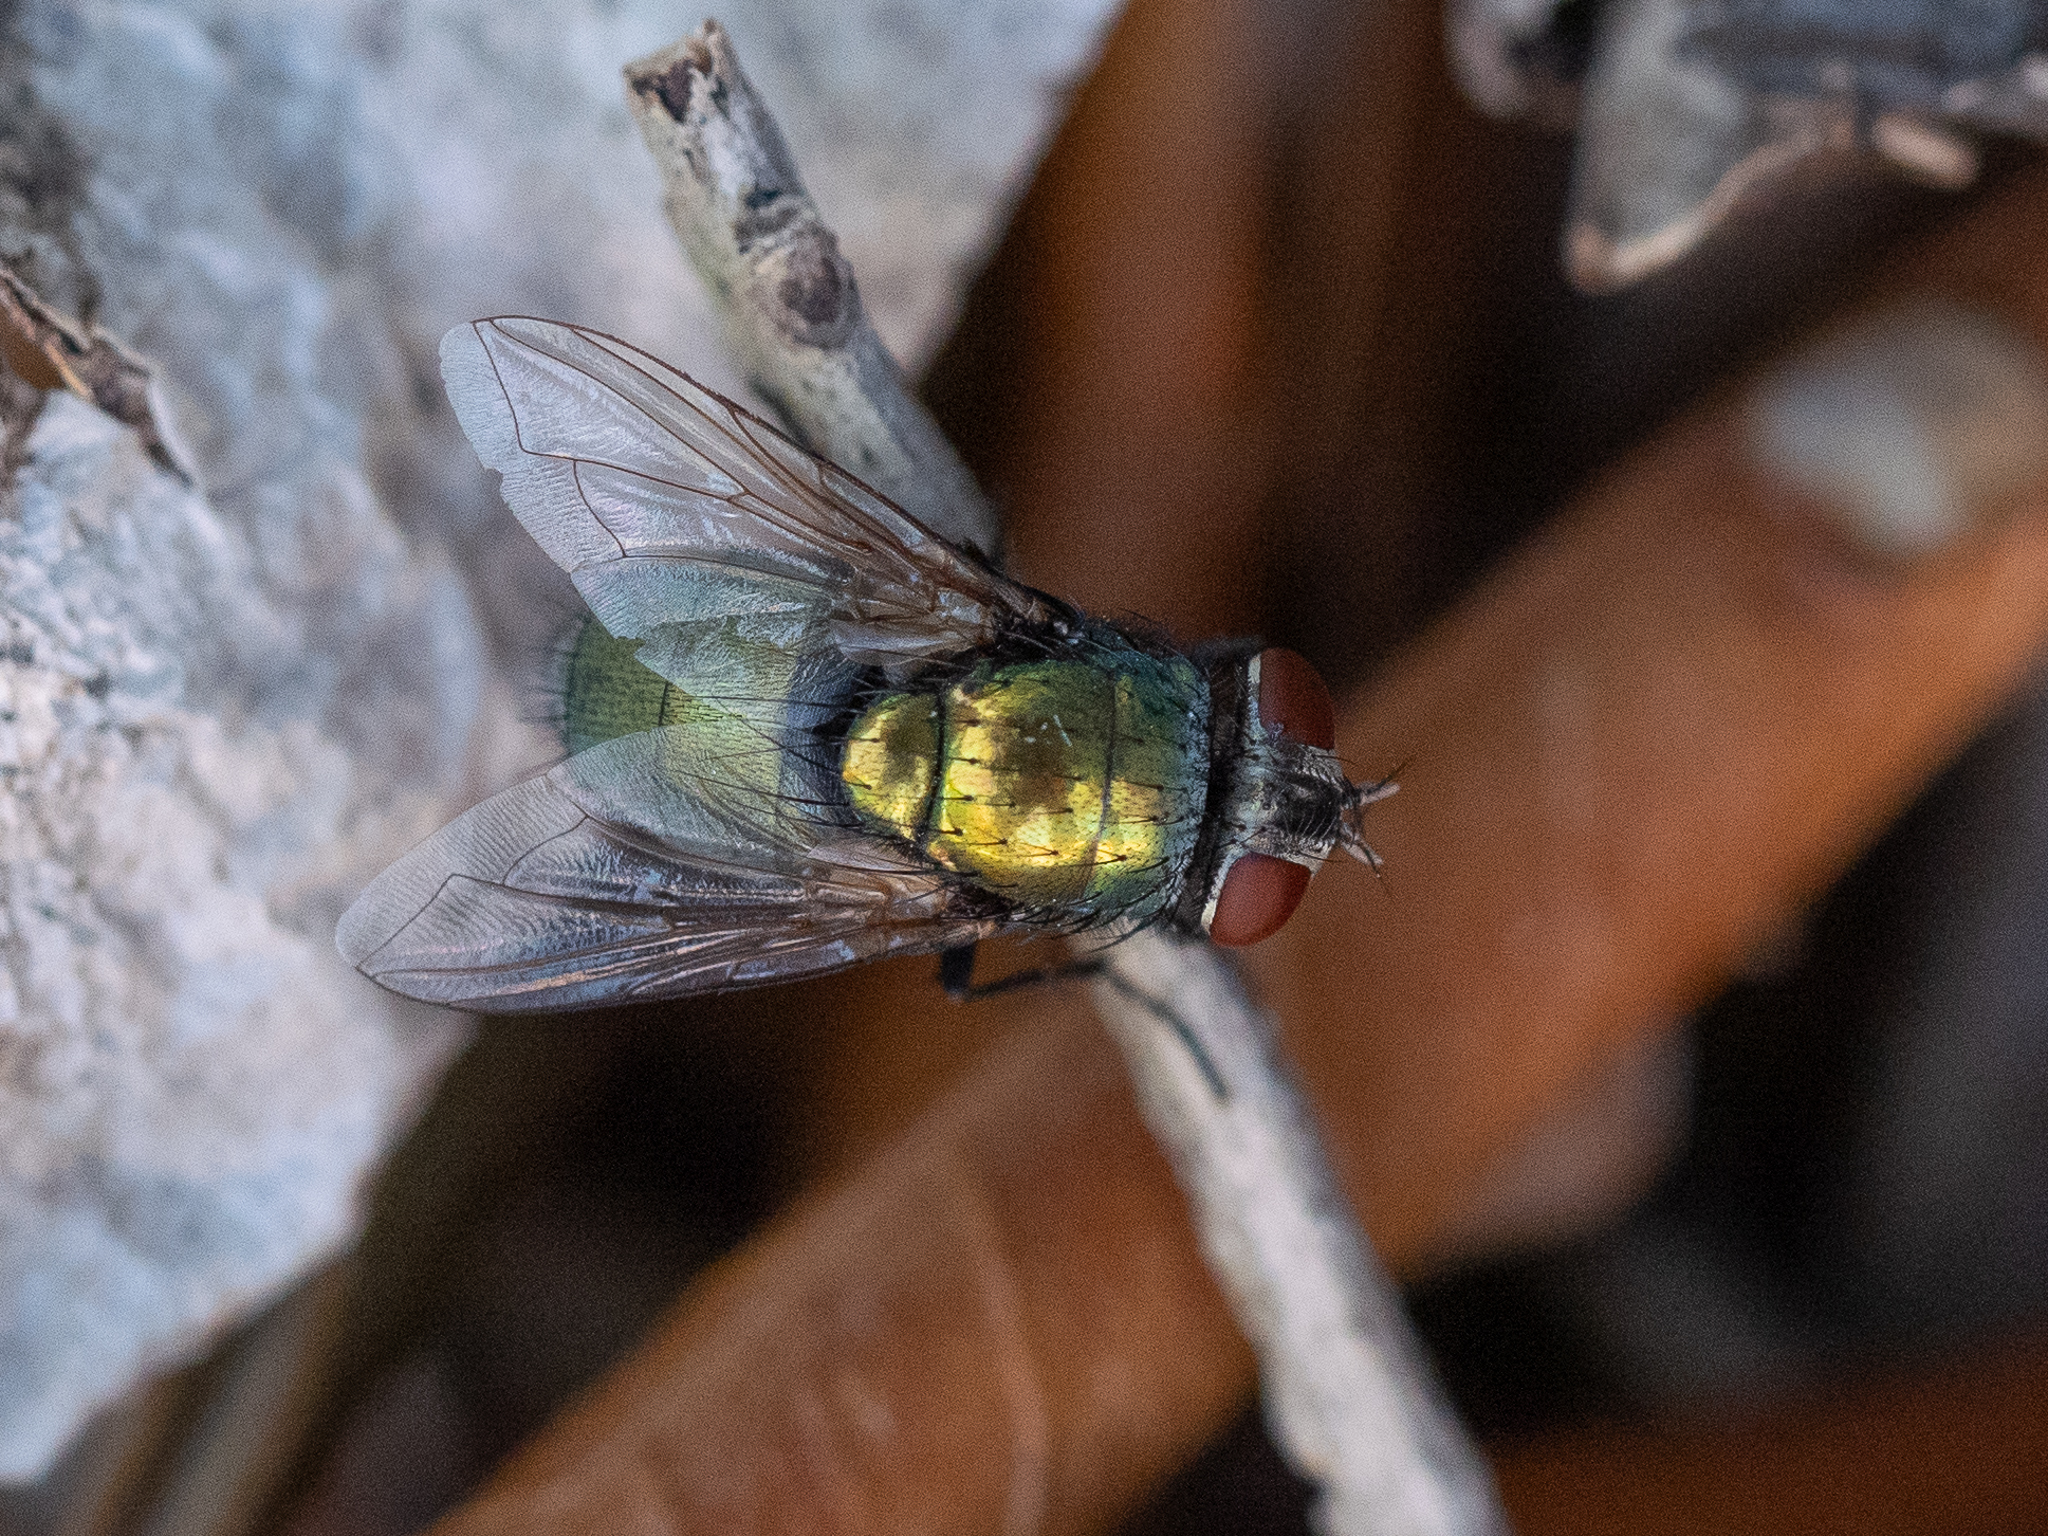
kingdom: Animalia
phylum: Arthropoda
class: Insecta
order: Diptera
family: Calliphoridae
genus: Lucilia
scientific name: Lucilia
